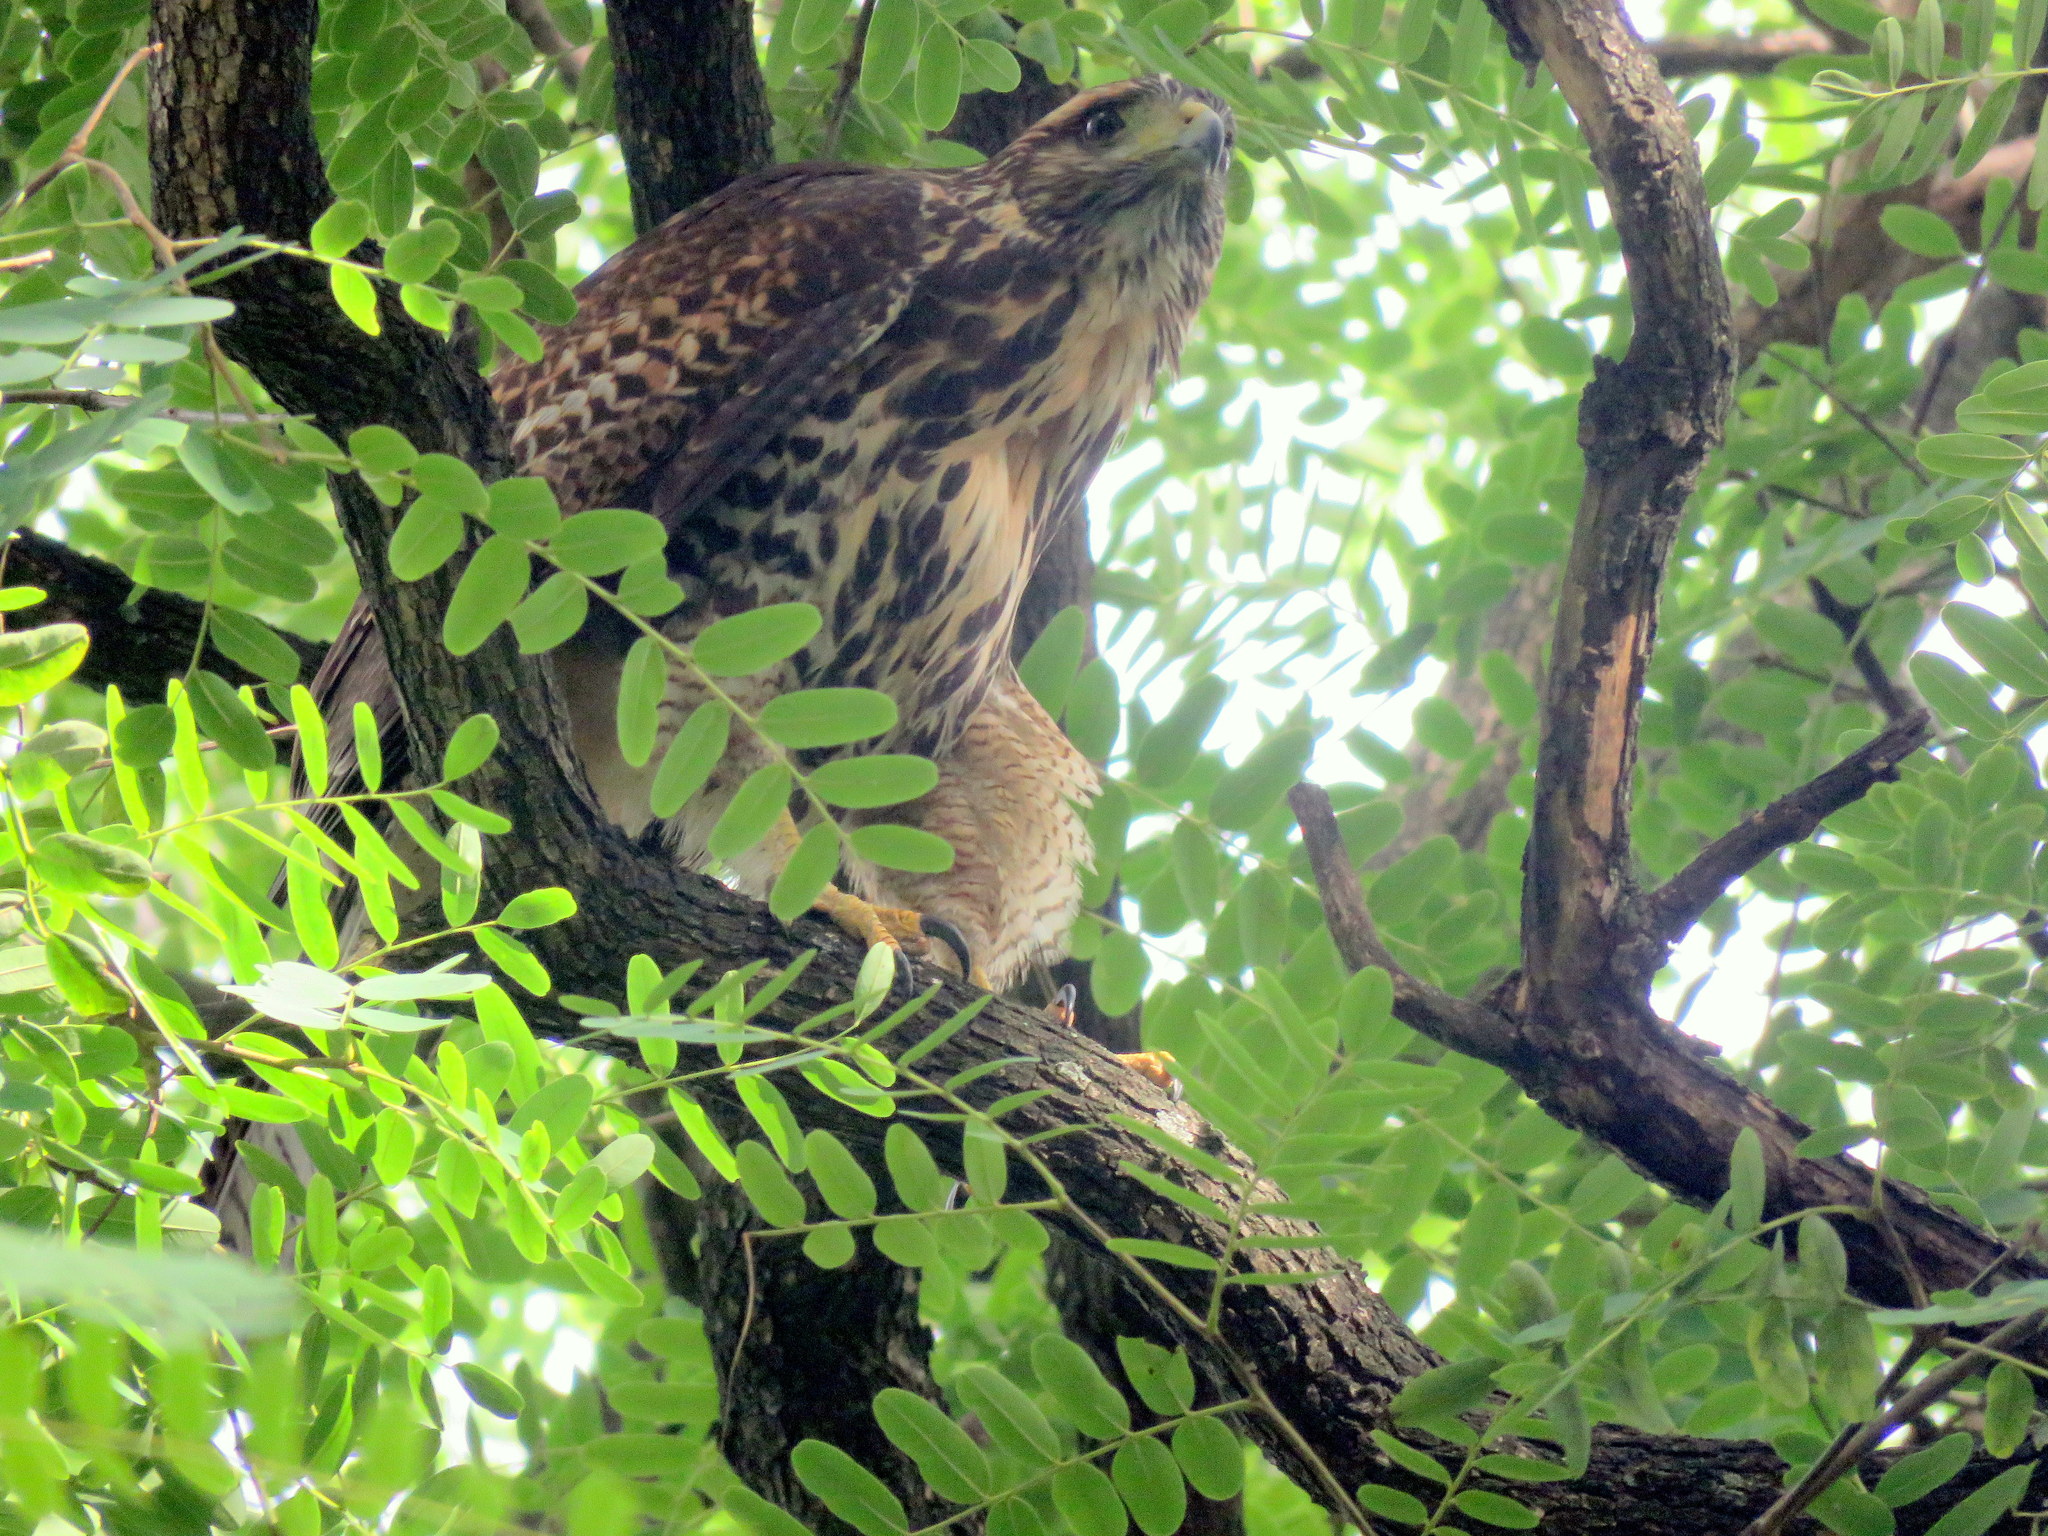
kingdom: Animalia
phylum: Chordata
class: Aves
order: Accipitriformes
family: Accipitridae
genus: Parabuteo
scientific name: Parabuteo unicinctus
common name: Harris's hawk
